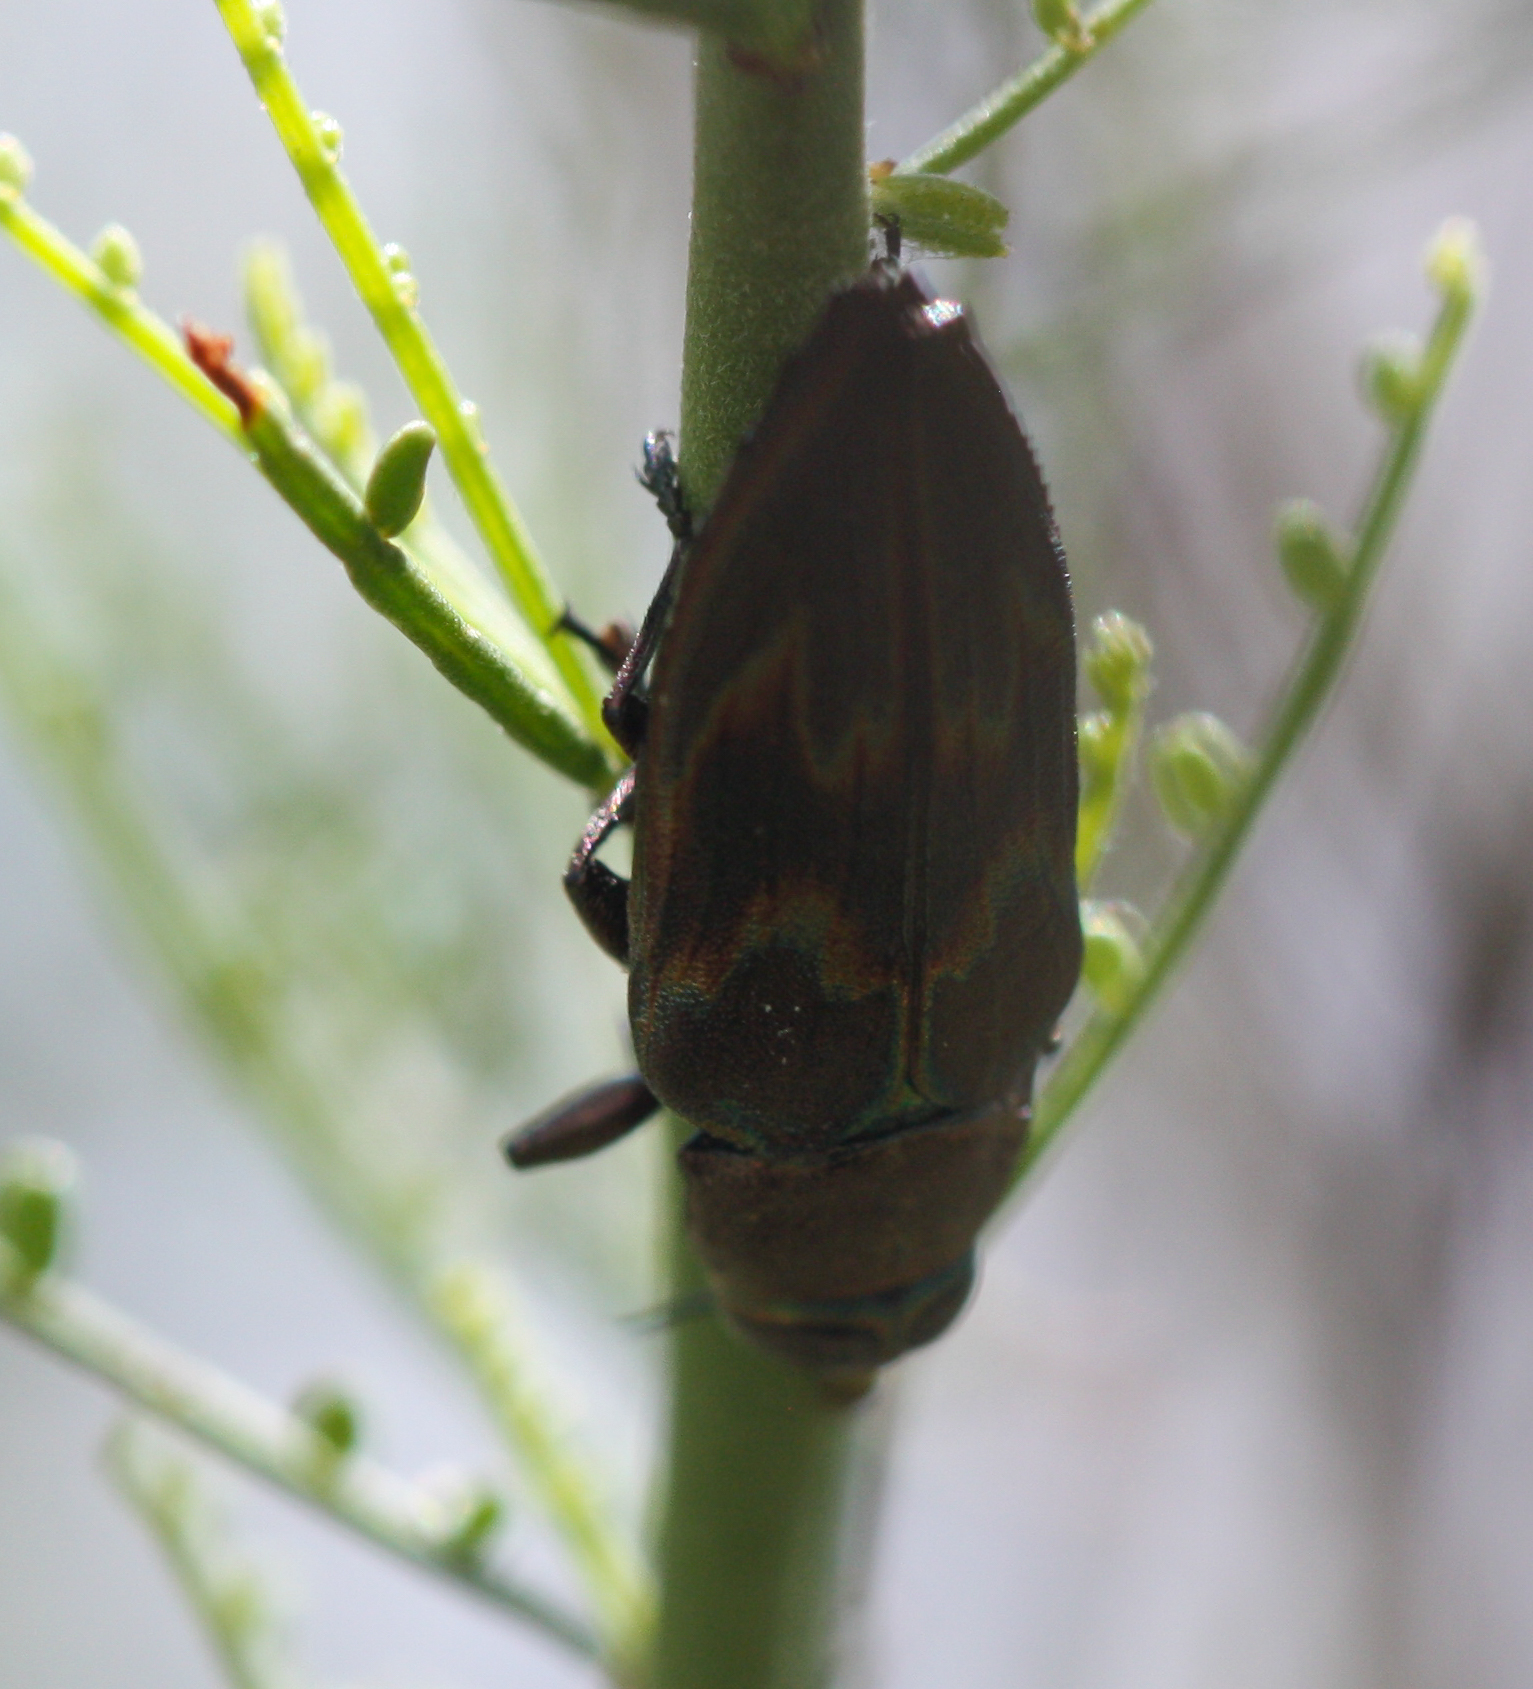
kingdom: Animalia
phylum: Arthropoda
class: Insecta
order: Coleoptera
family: Buprestidae
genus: Actenodes
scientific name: Actenodes calcaratus
